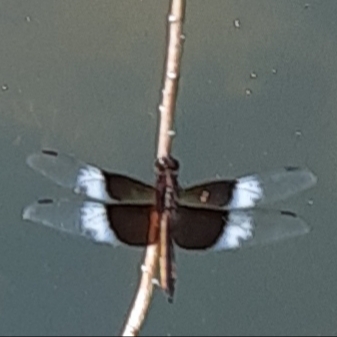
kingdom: Animalia
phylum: Arthropoda
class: Insecta
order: Odonata
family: Libellulidae
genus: Libellula
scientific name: Libellula luctuosa
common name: Widow skimmer
